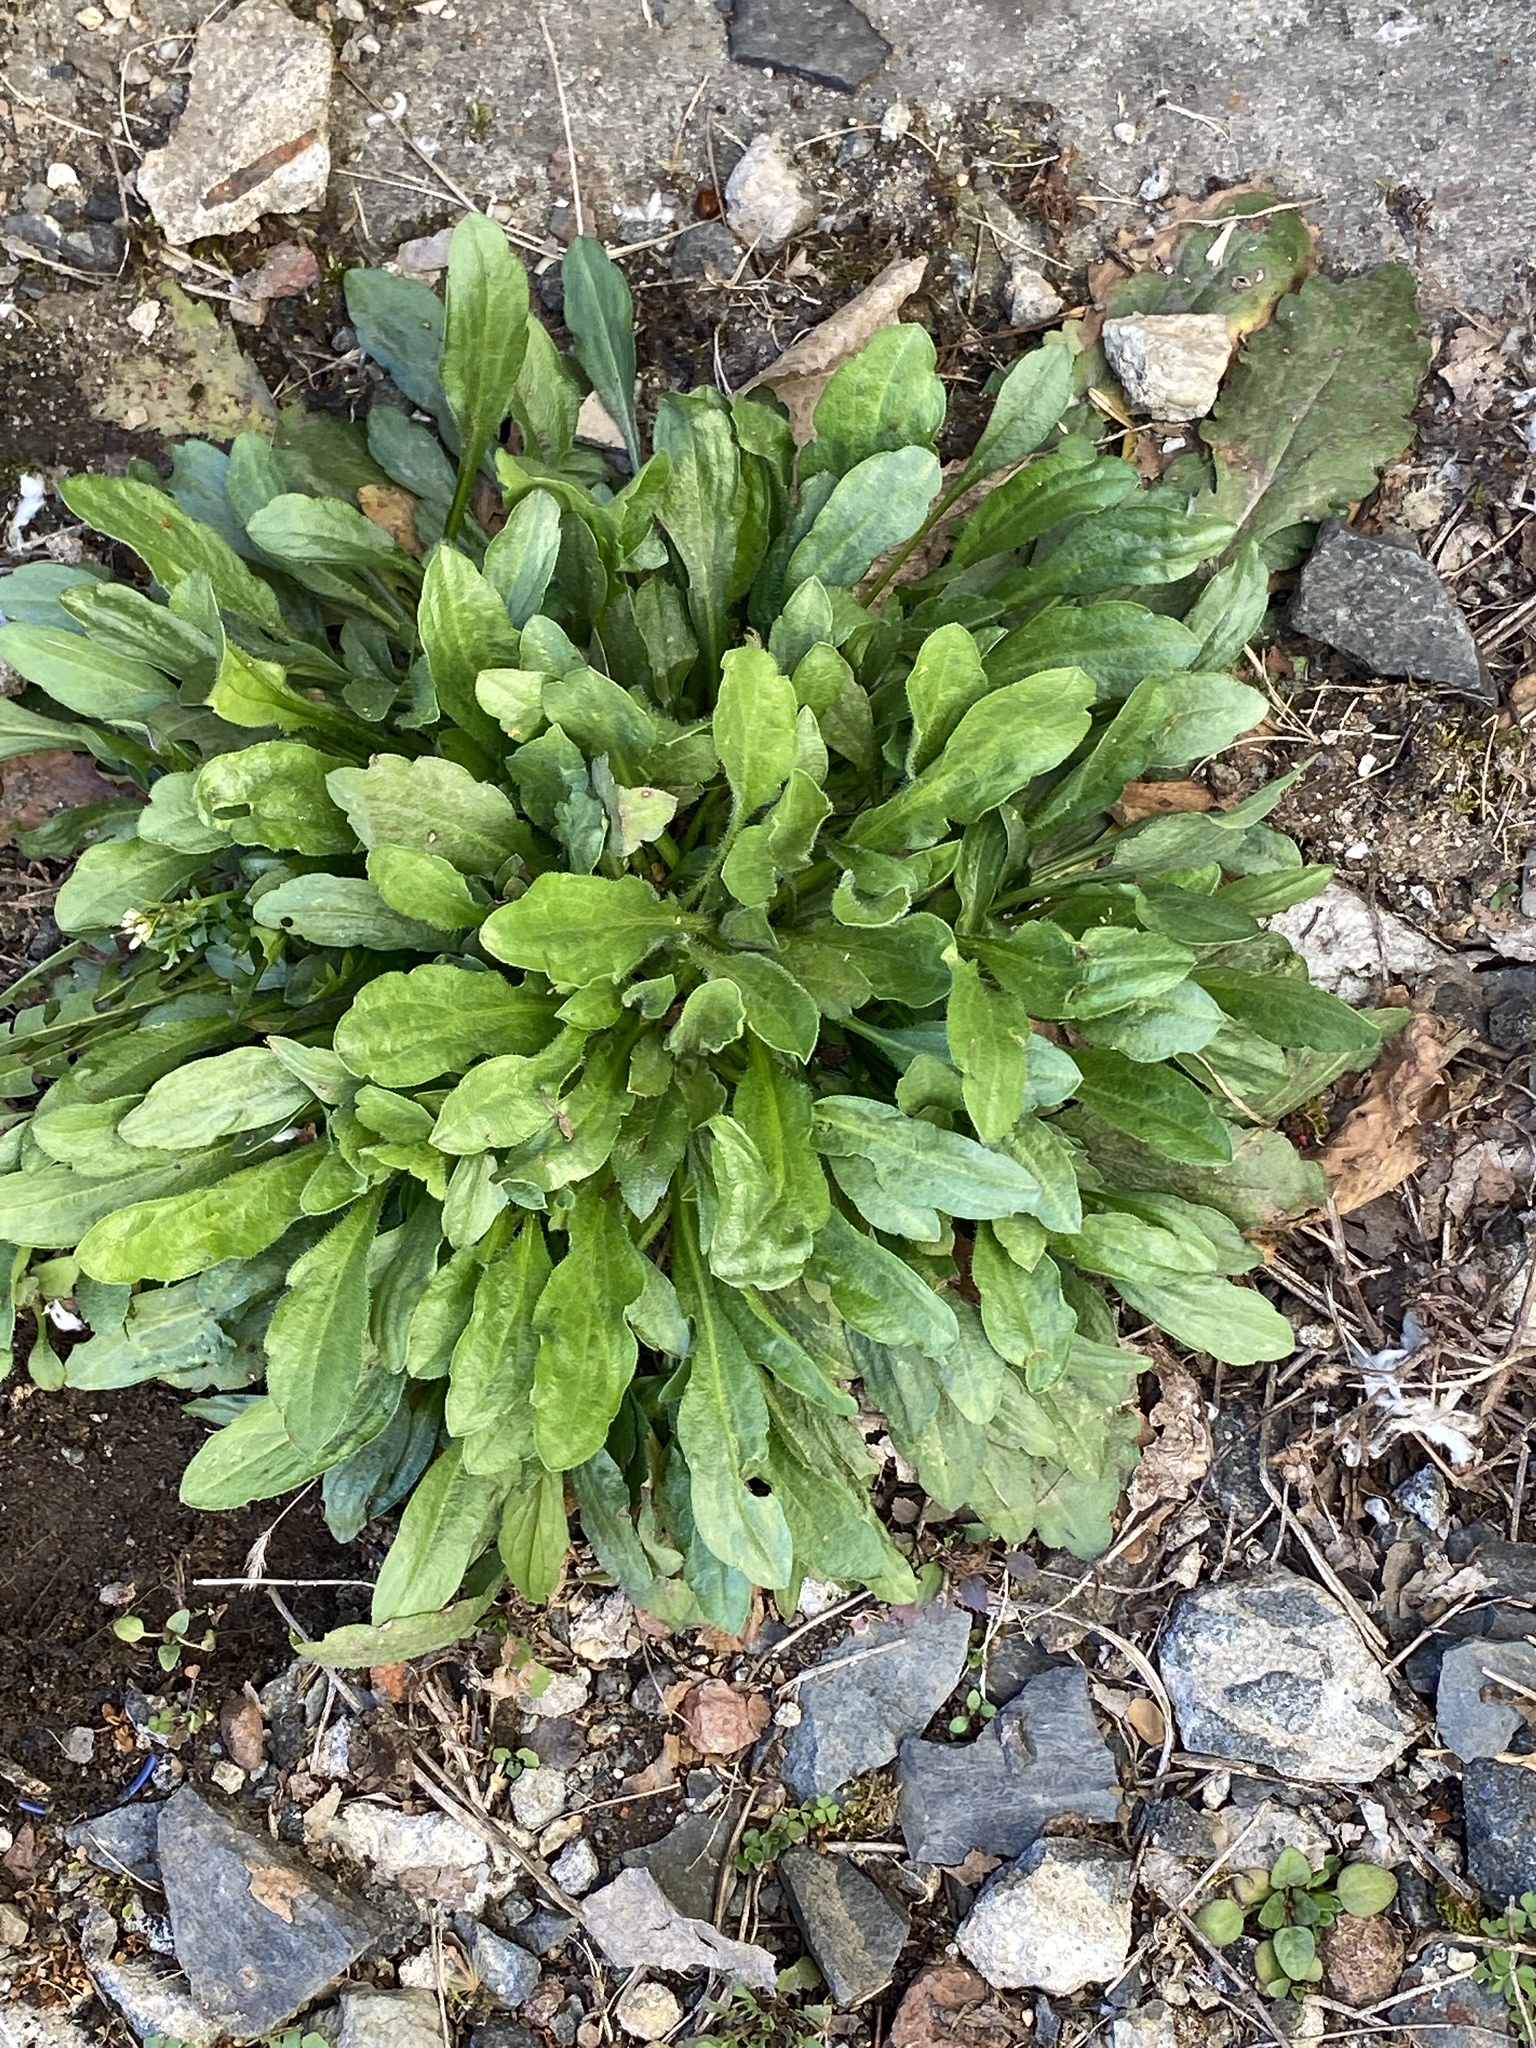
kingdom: Plantae
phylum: Tracheophyta
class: Magnoliopsida
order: Asterales
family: Asteraceae
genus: Erigeron
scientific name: Erigeron canadensis
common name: Canadian fleabane
